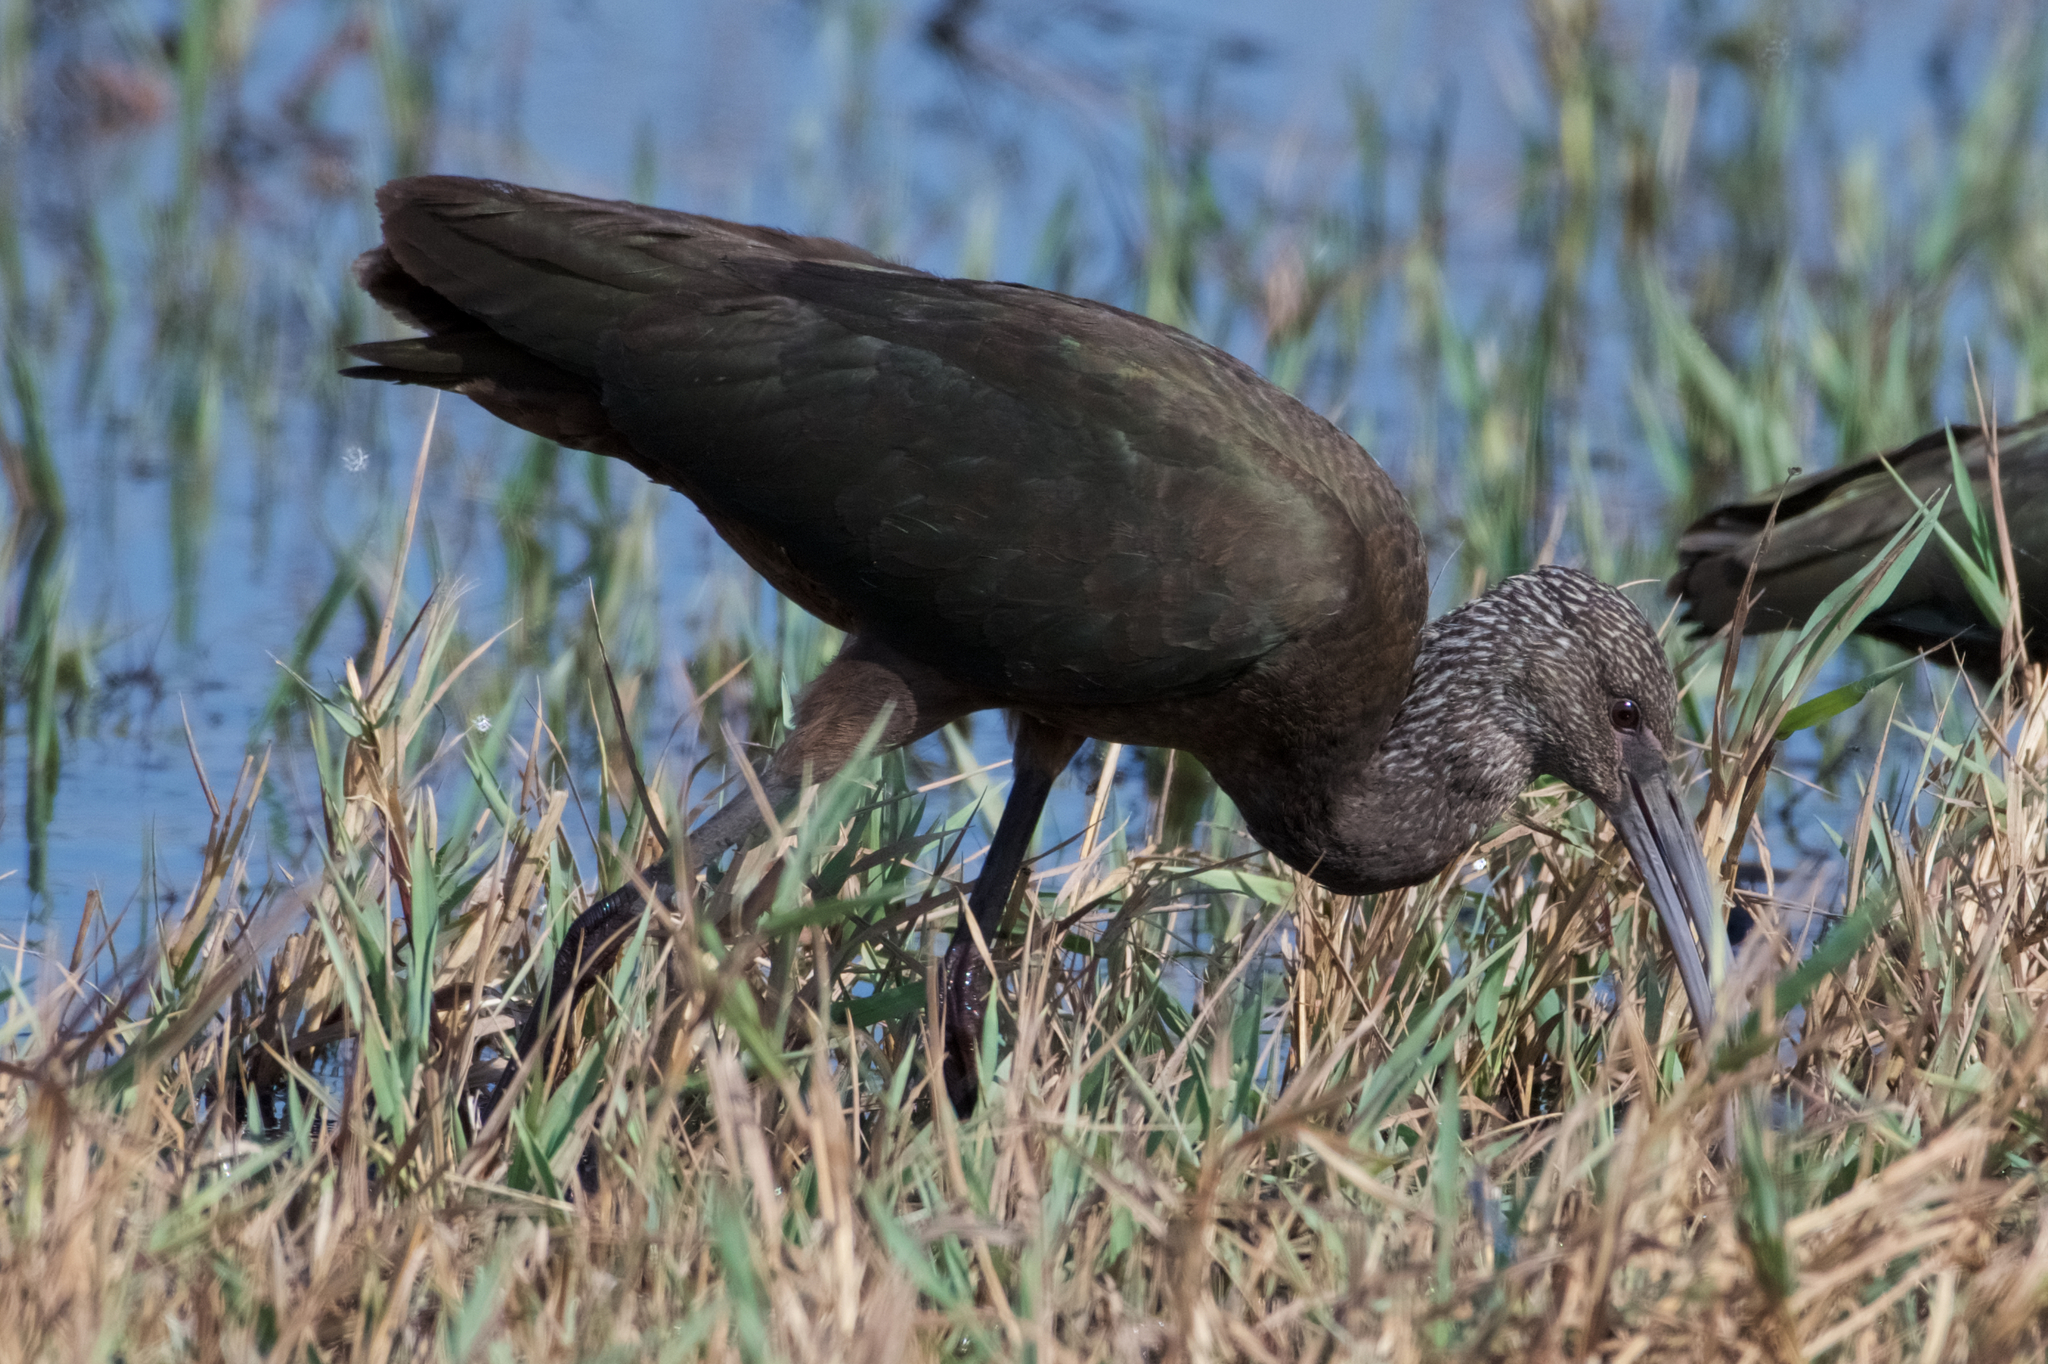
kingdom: Animalia
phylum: Chordata
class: Aves
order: Pelecaniformes
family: Threskiornithidae
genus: Plegadis
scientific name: Plegadis chihi
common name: White-faced ibis
